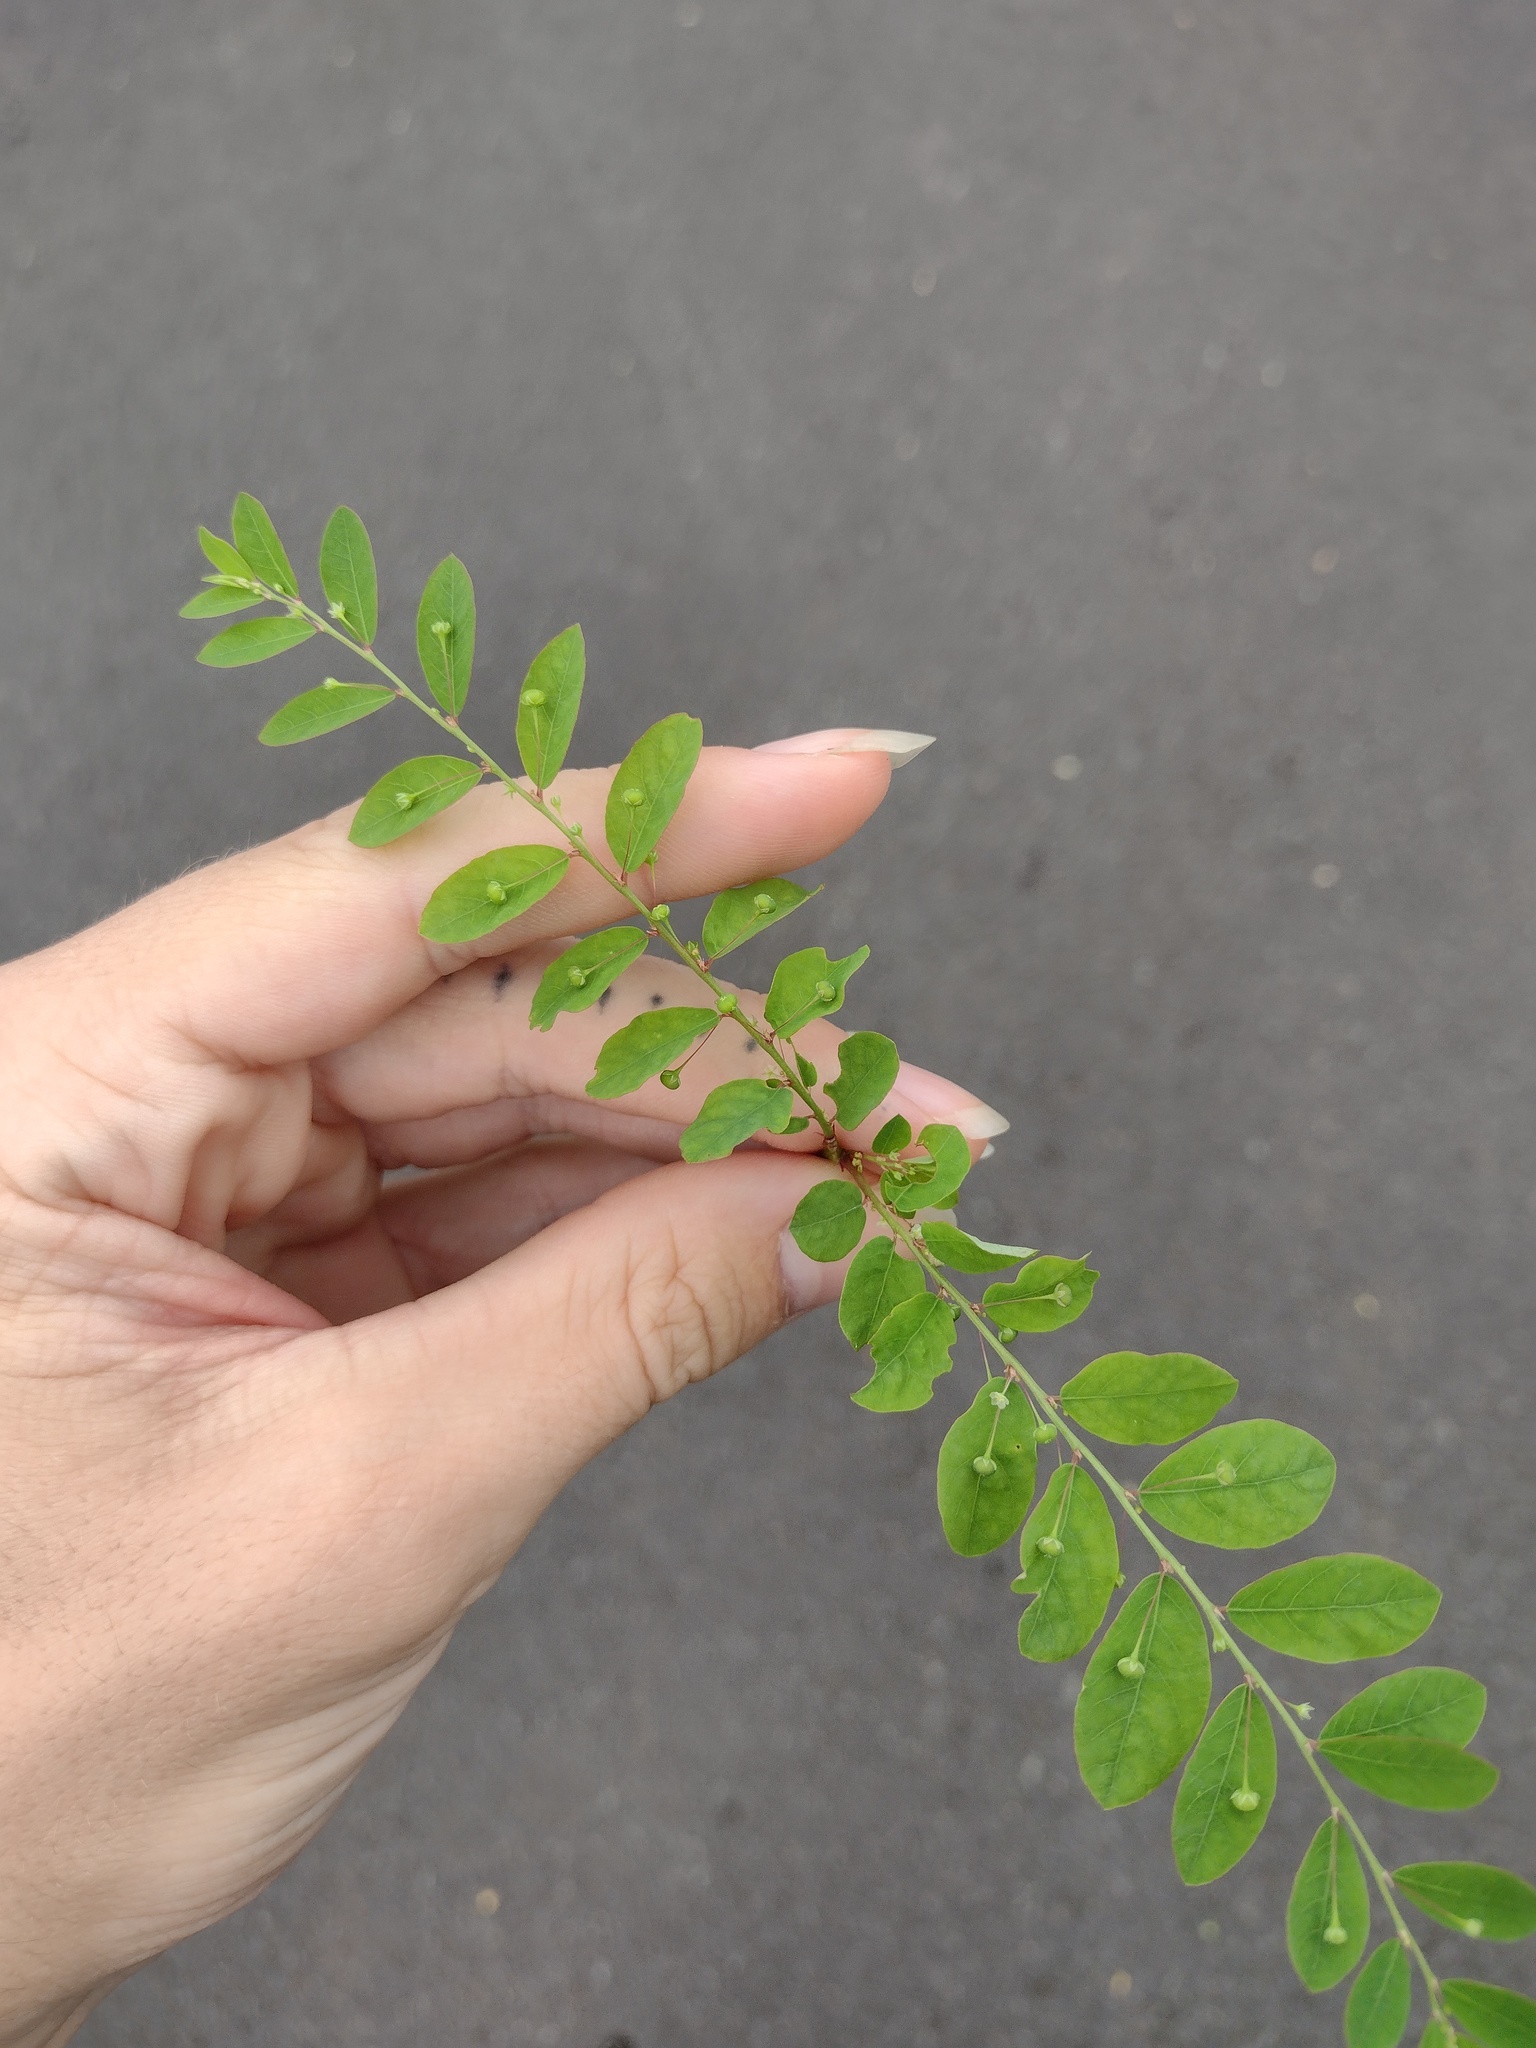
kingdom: Plantae
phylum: Tracheophyta
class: Magnoliopsida
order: Malpighiales
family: Phyllanthaceae
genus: Phyllanthus
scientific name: Phyllanthus tenellus
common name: Mascarene island leaf-flower
